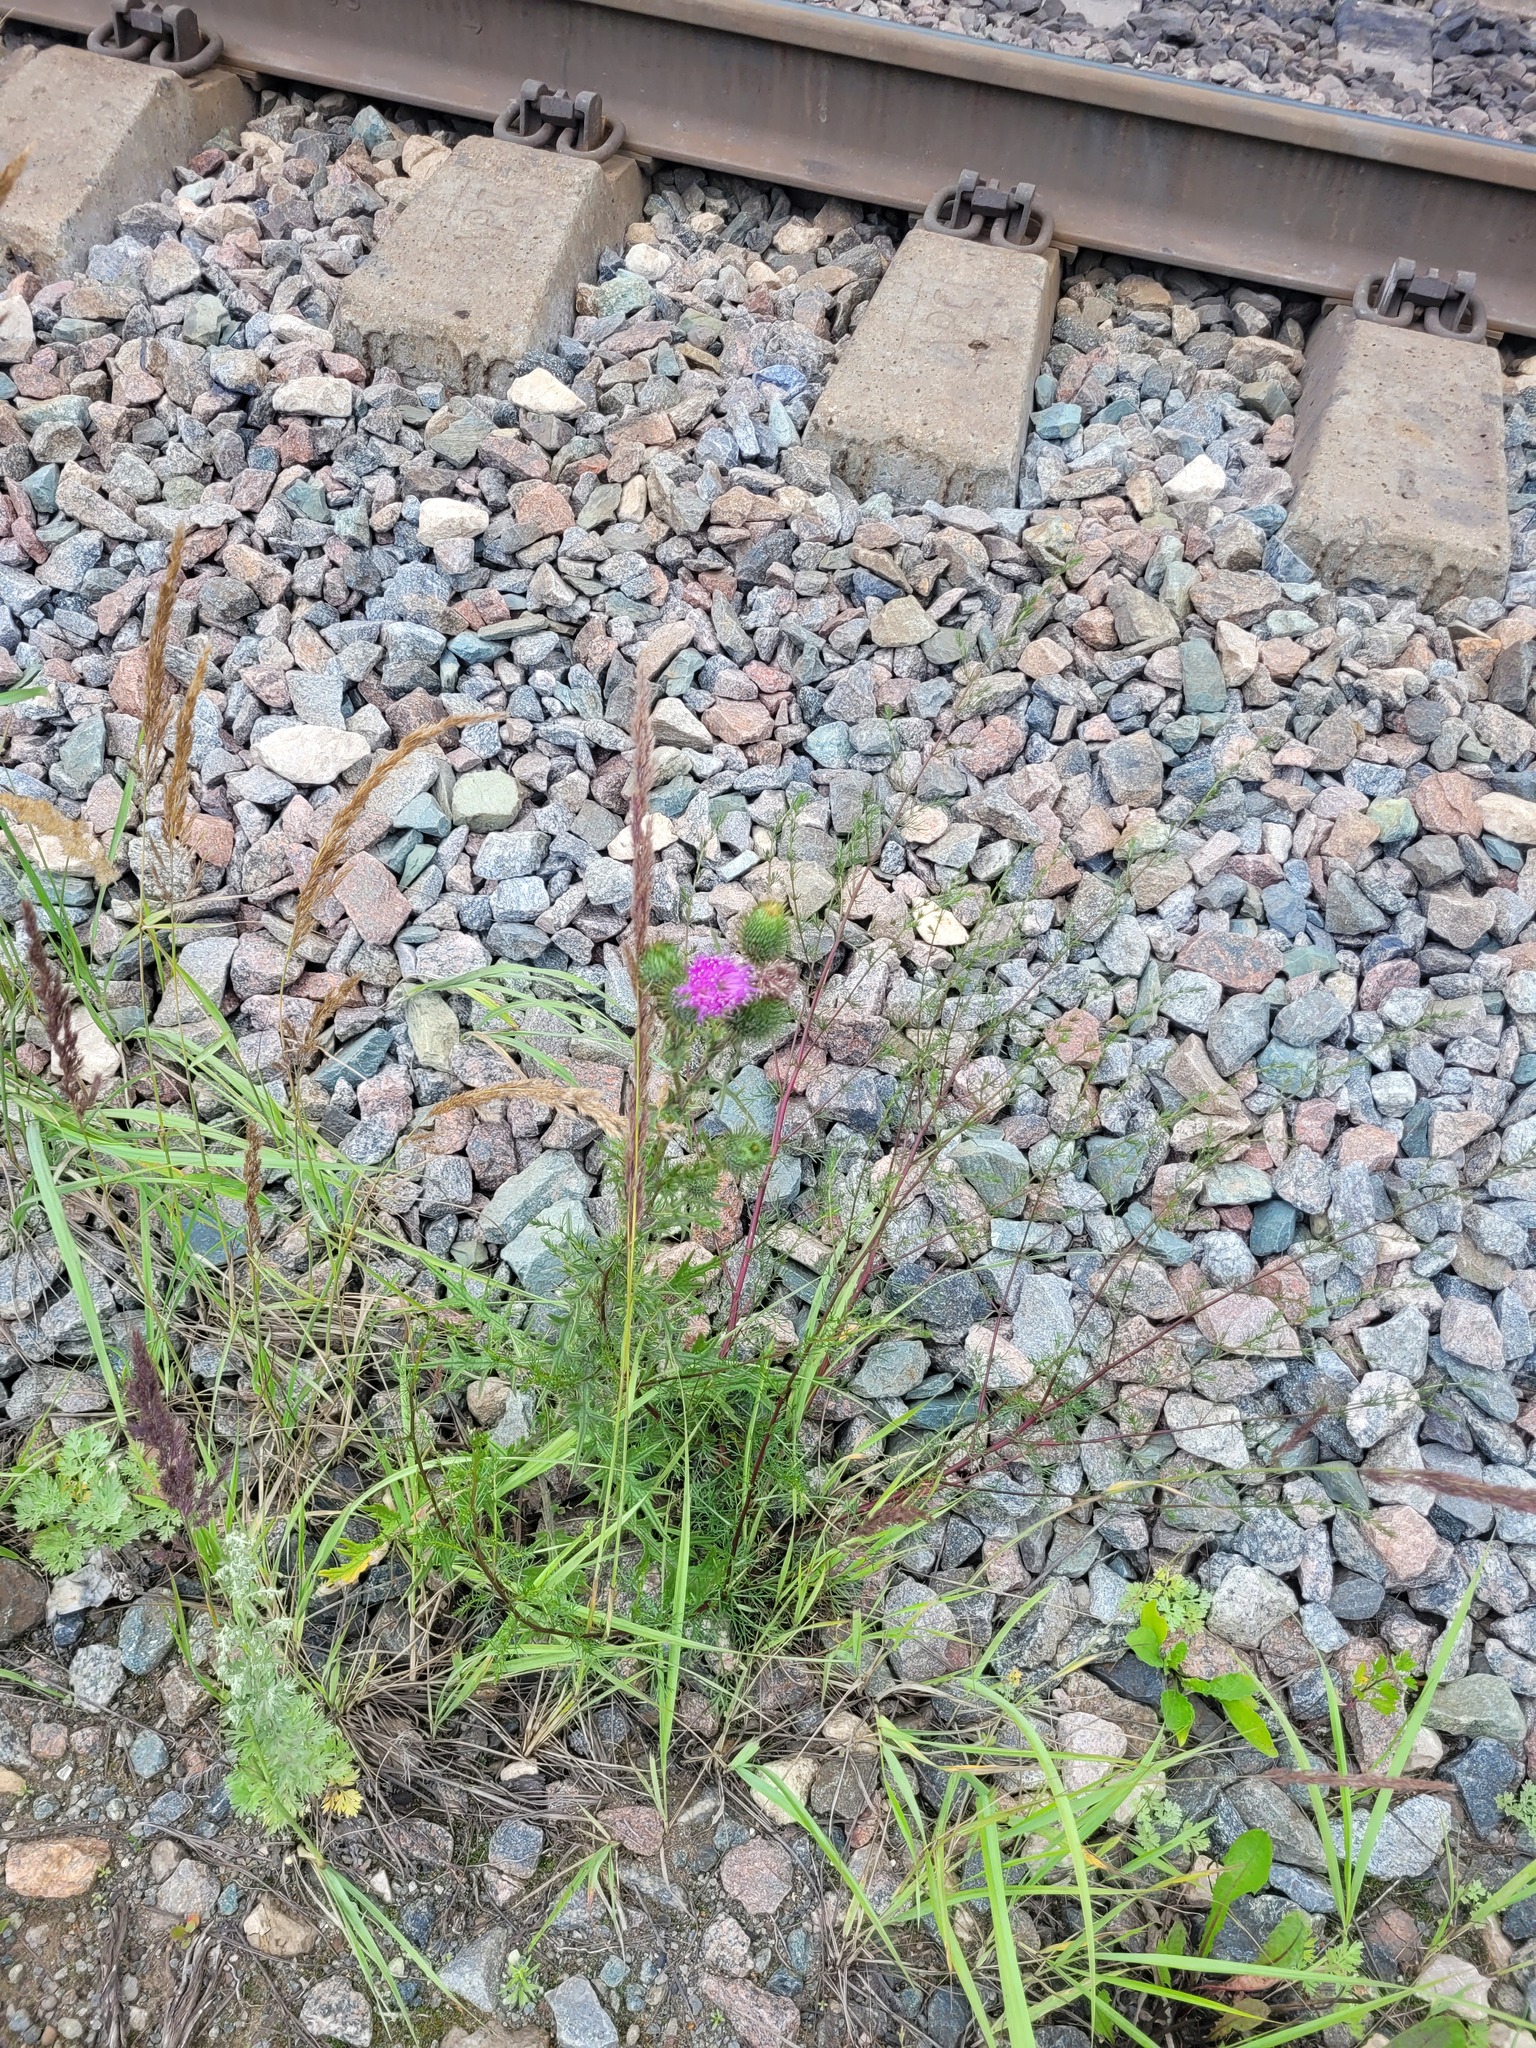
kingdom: Plantae
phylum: Tracheophyta
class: Magnoliopsida
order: Asterales
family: Asteraceae
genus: Cirsium
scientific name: Cirsium vulgare
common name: Bull thistle
